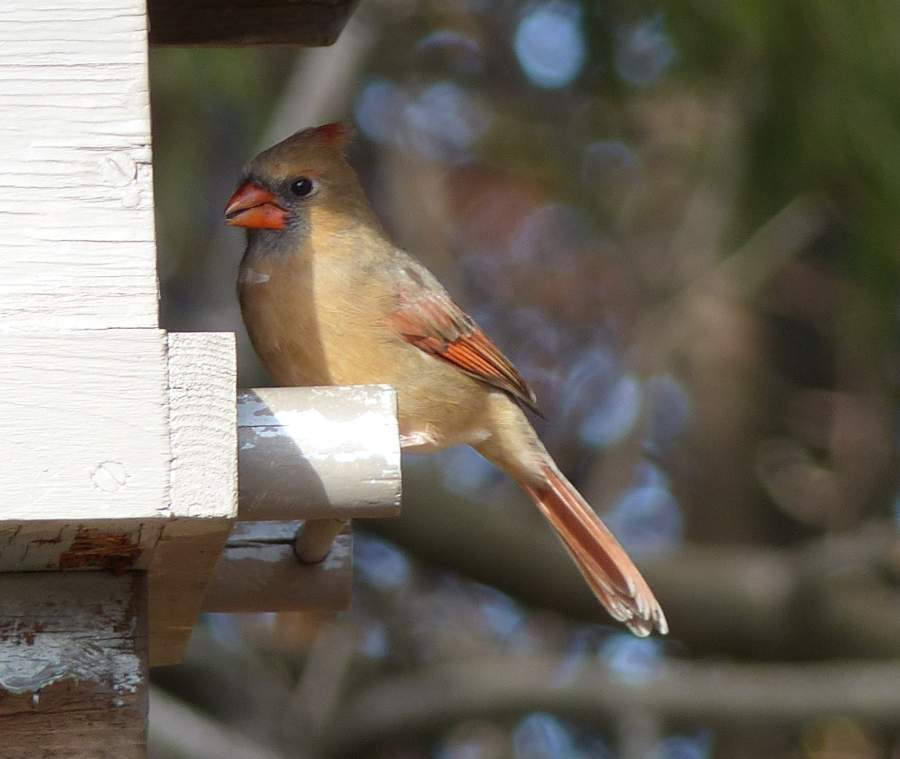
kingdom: Animalia
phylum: Chordata
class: Aves
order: Passeriformes
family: Cardinalidae
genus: Cardinalis
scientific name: Cardinalis cardinalis
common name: Northern cardinal
